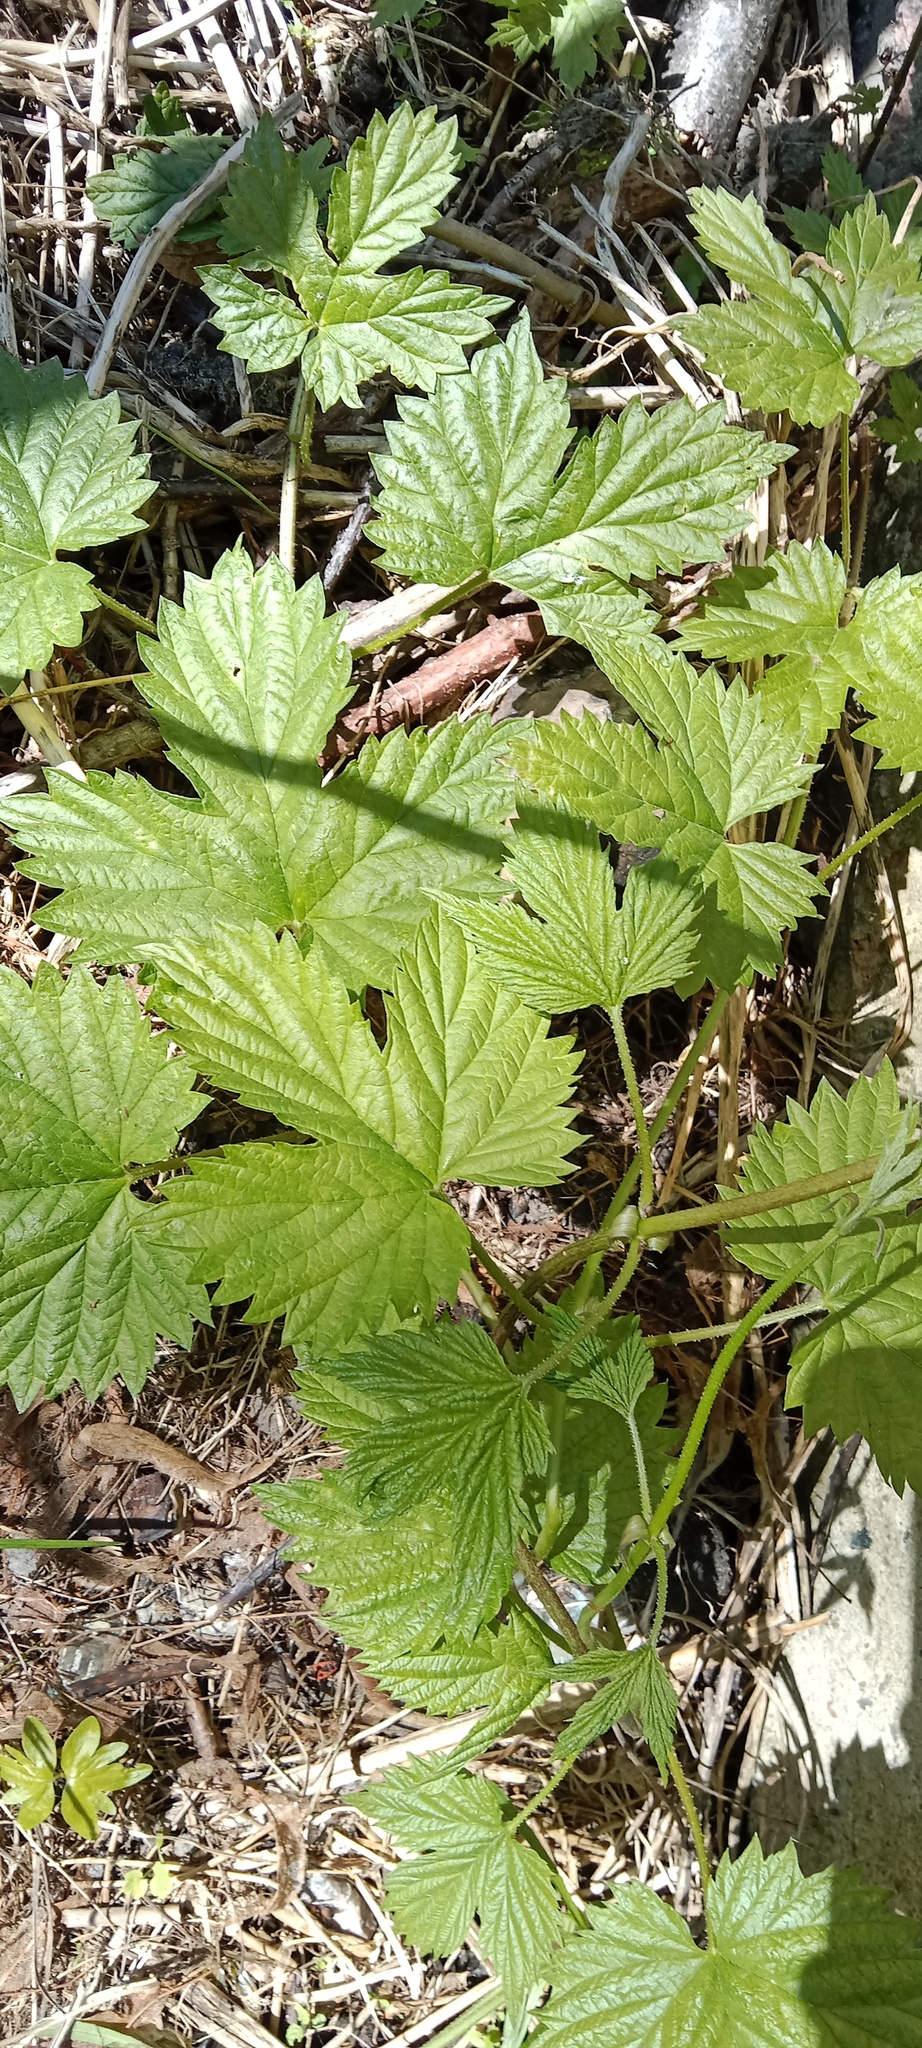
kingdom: Plantae
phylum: Tracheophyta
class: Magnoliopsida
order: Rosales
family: Cannabaceae
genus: Humulus
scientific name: Humulus lupulus
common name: Hop
